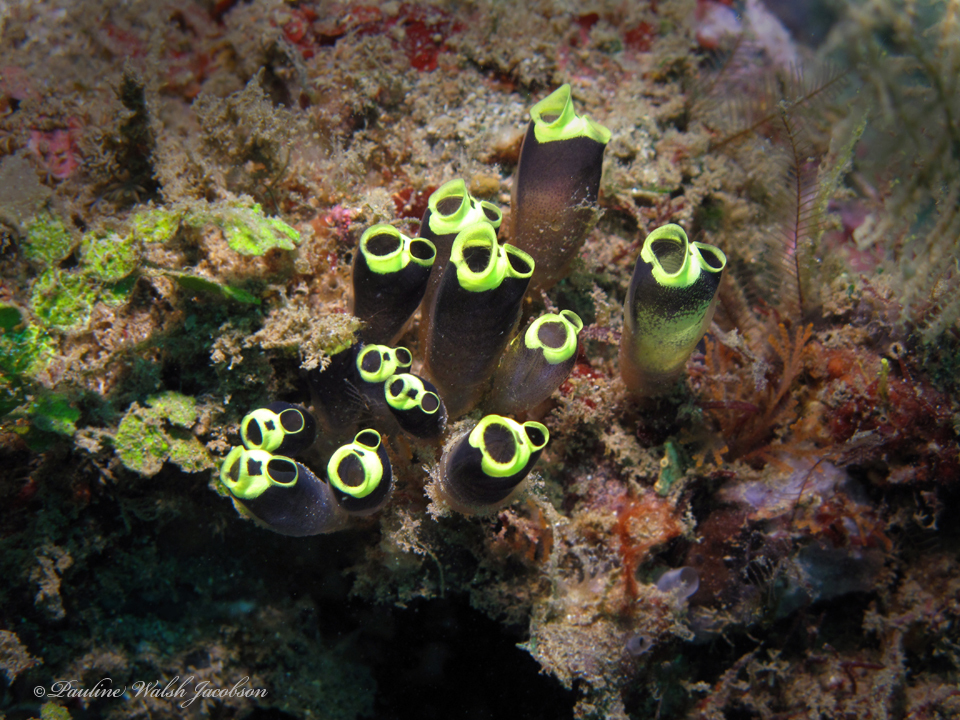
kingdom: Animalia
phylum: Chordata
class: Ascidiacea
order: Aplousobranchia
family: Clavelinidae
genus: Clavelina
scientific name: Clavelina robusta
